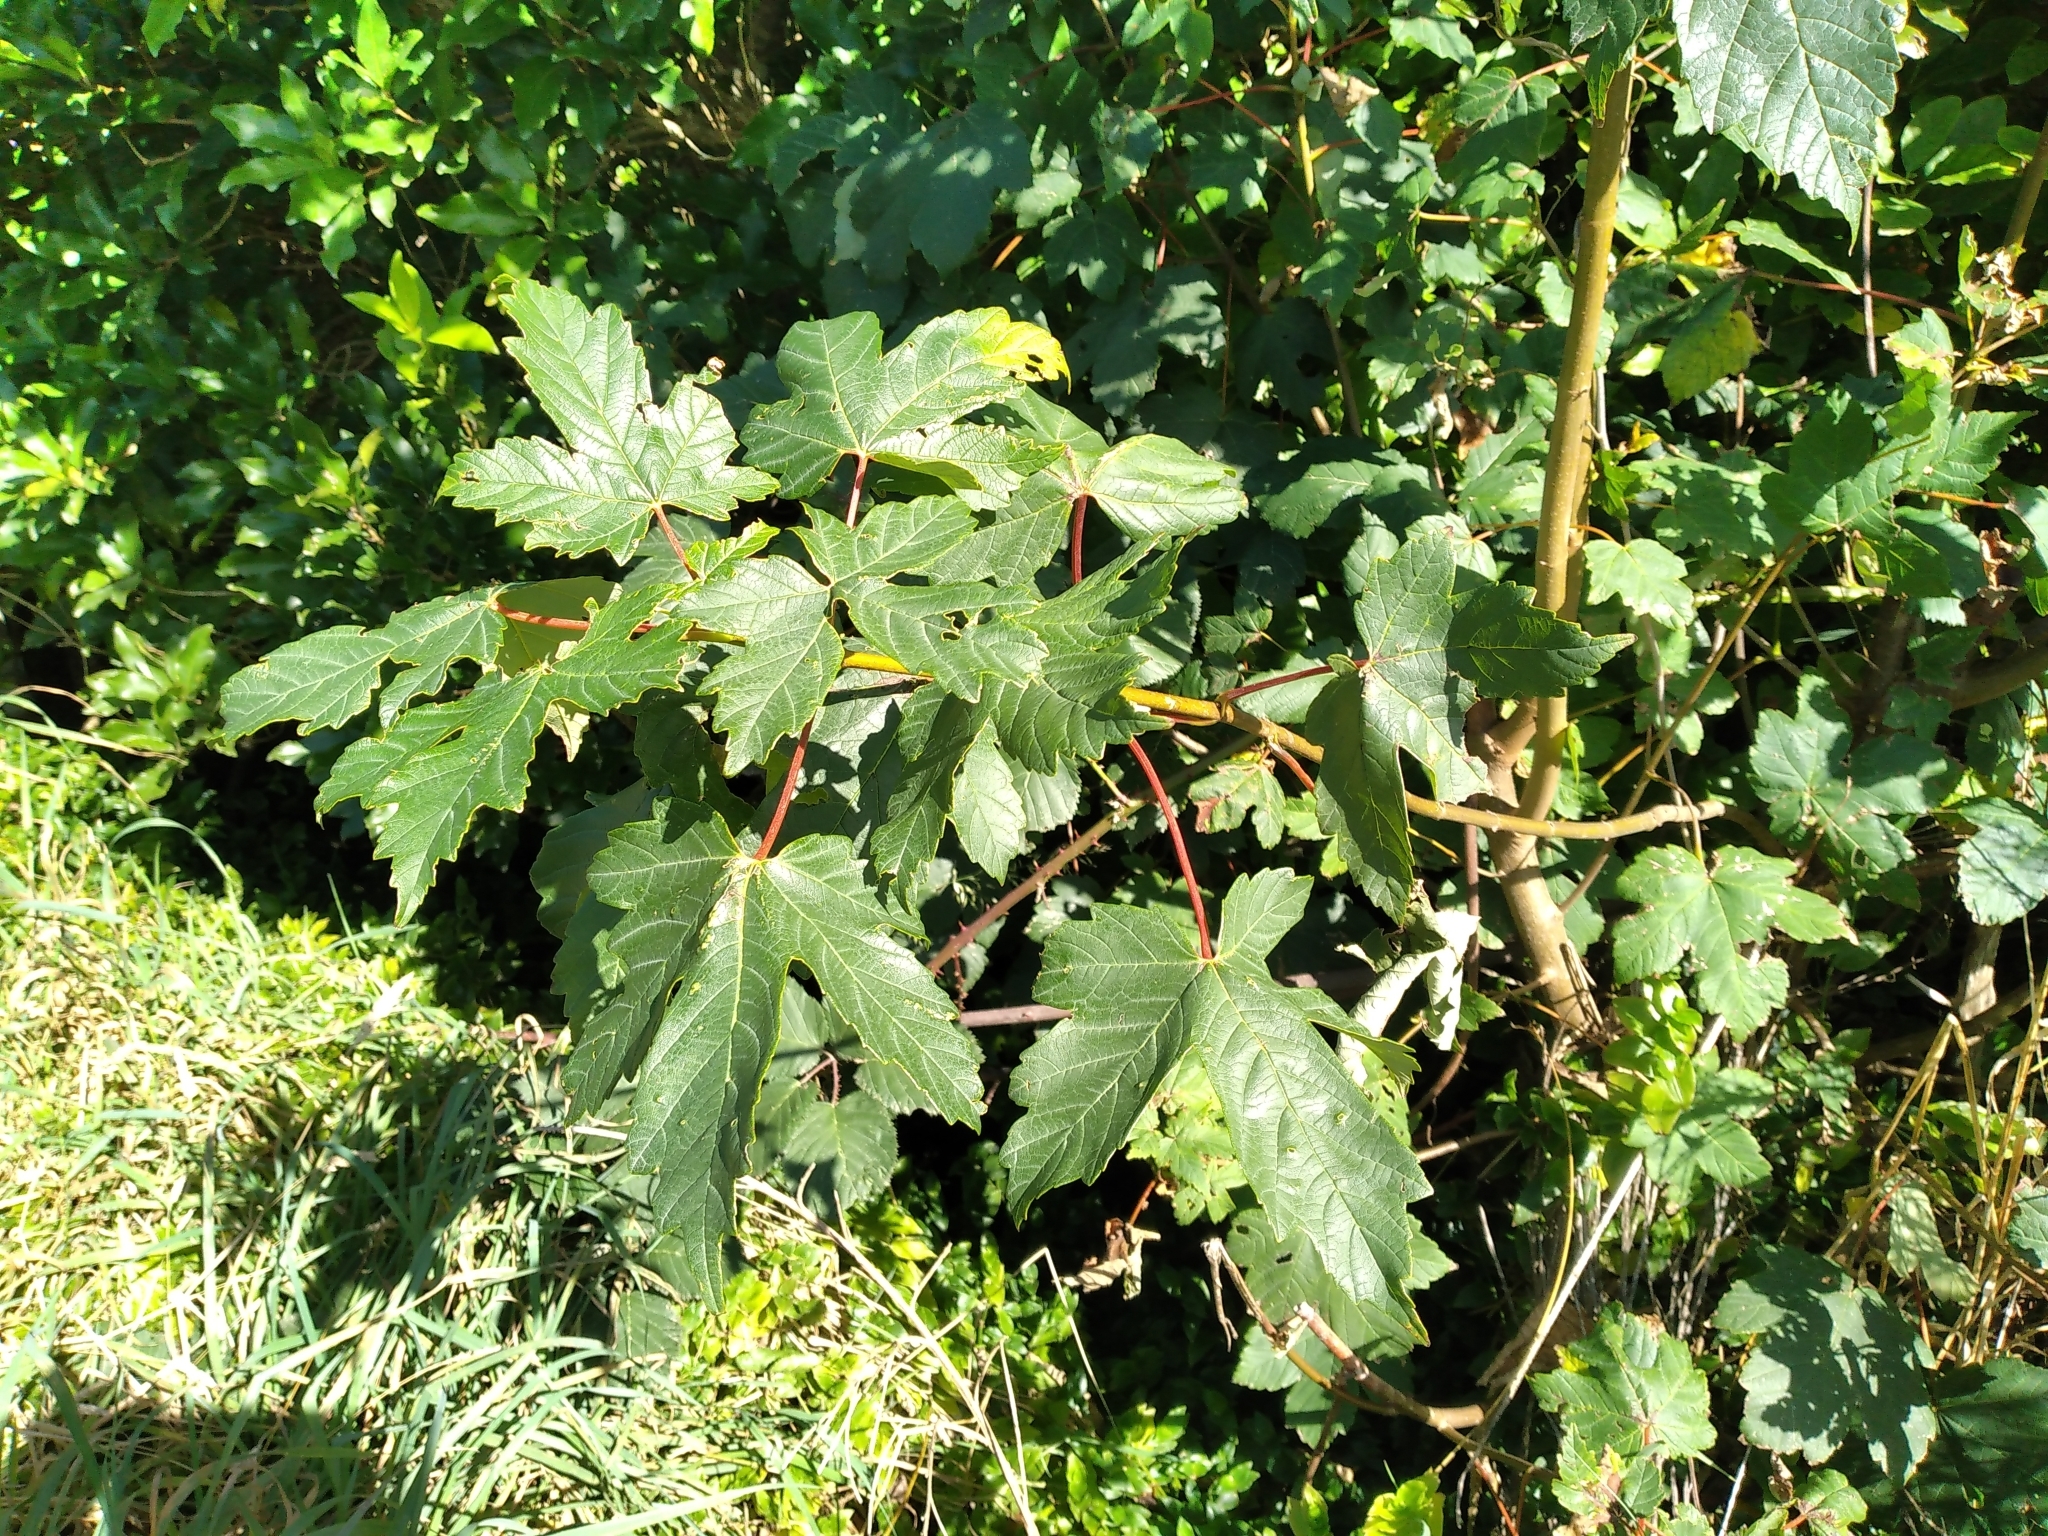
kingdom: Plantae
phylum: Tracheophyta
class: Magnoliopsida
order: Sapindales
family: Sapindaceae
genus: Acer
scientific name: Acer pseudoplatanus
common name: Sycamore
